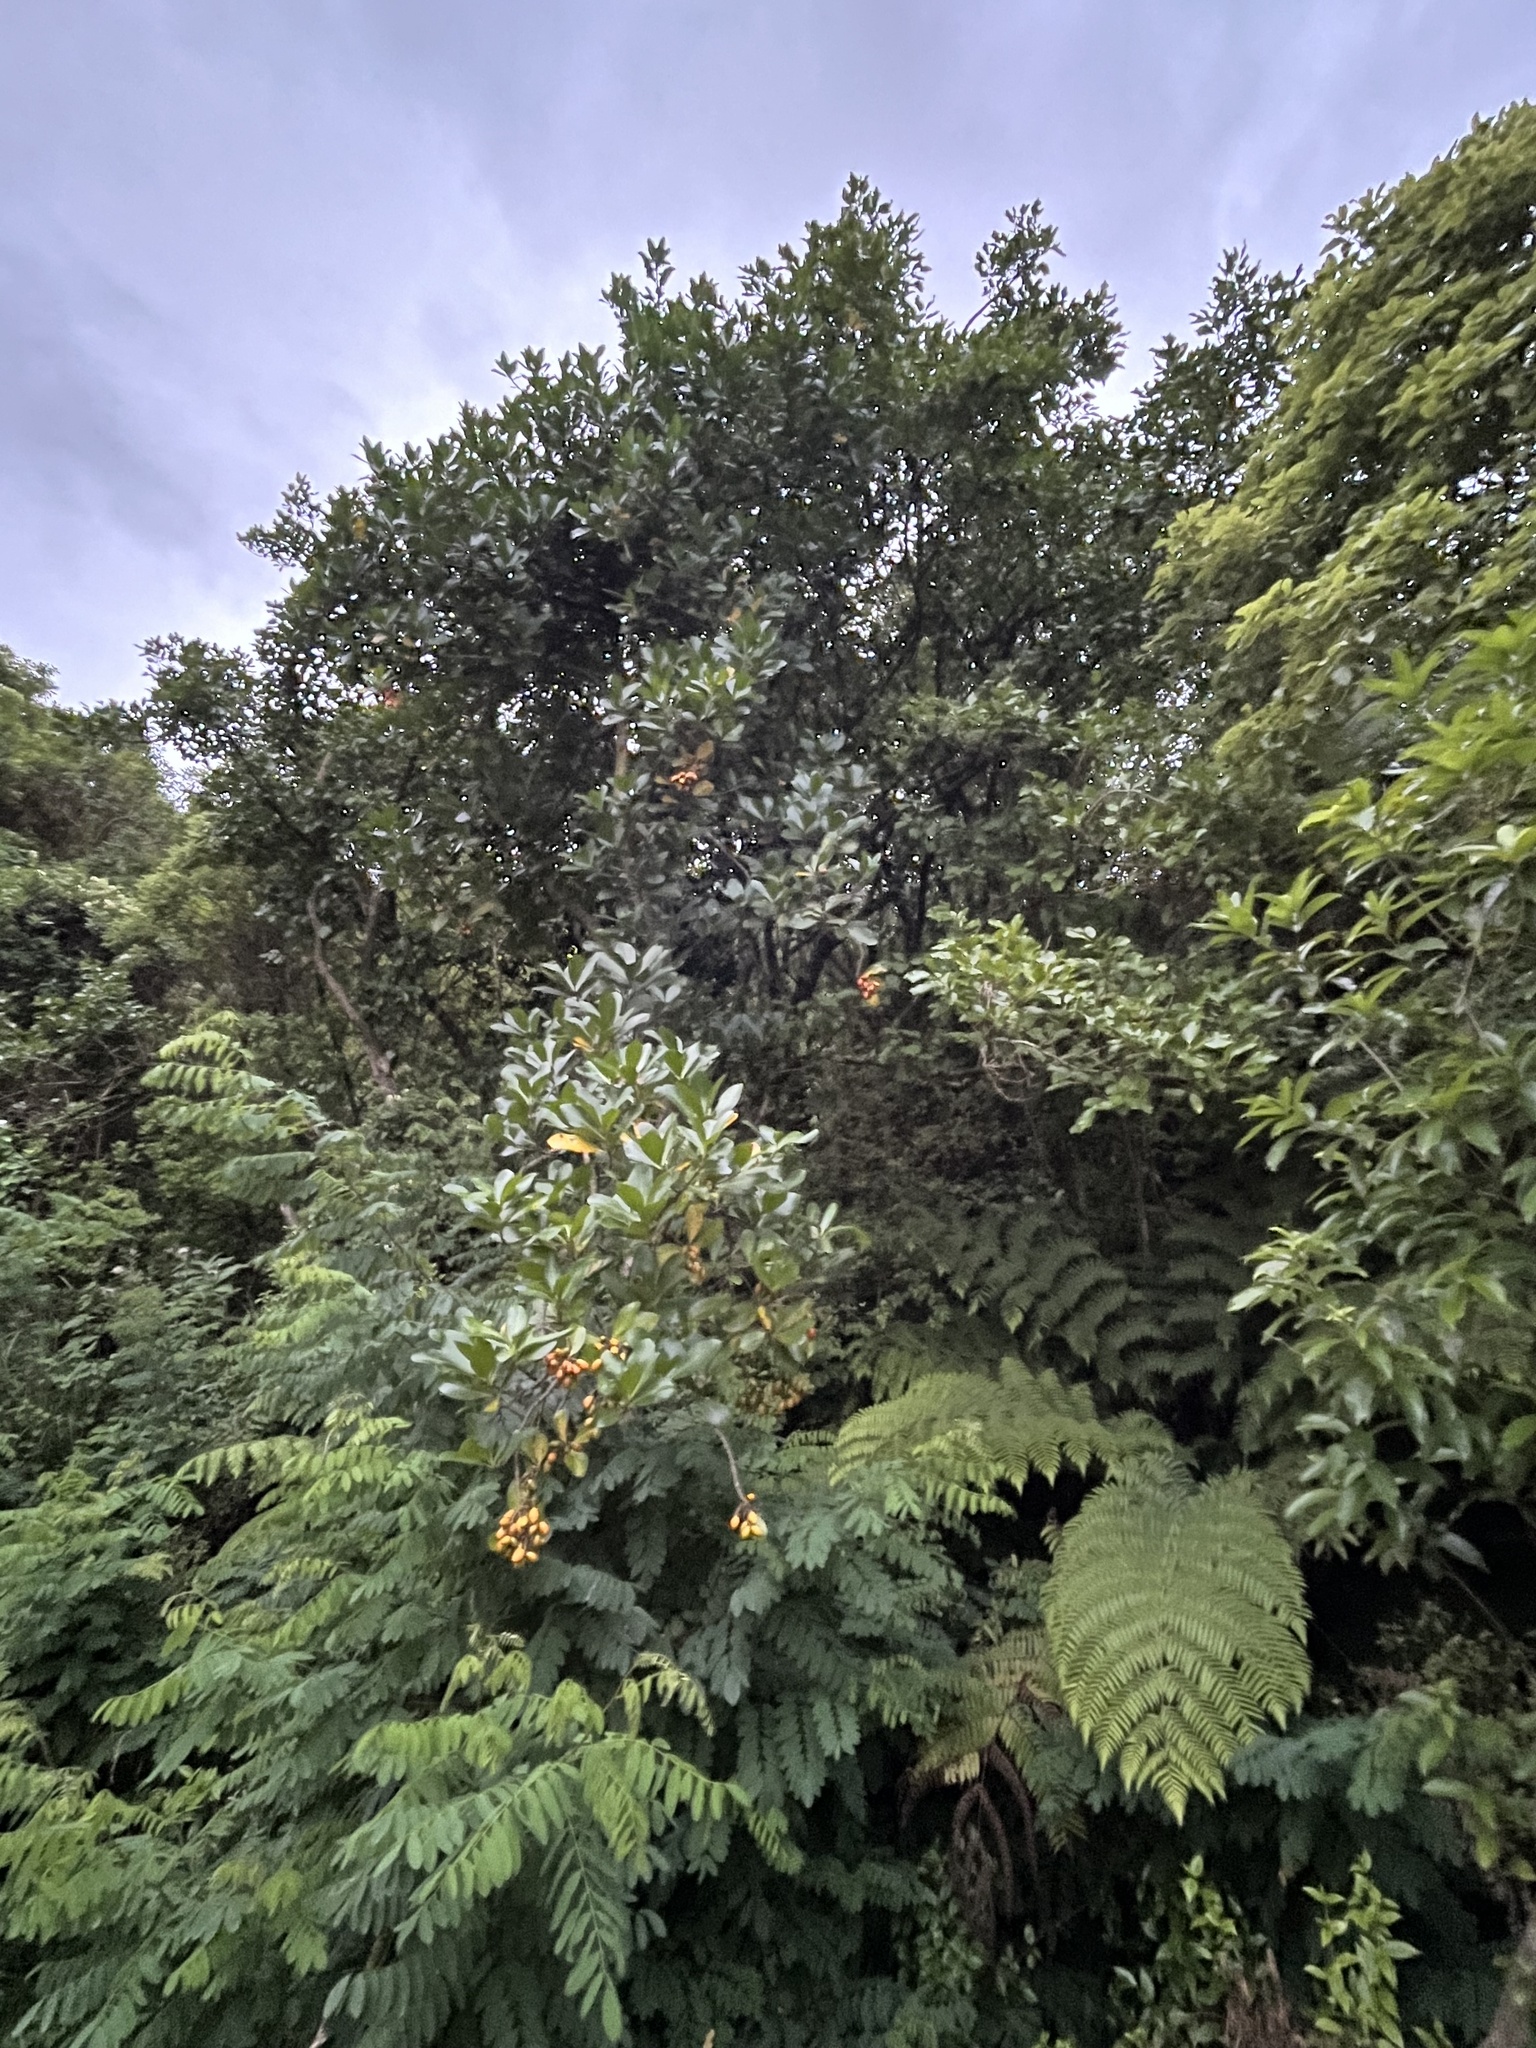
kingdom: Plantae
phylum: Tracheophyta
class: Magnoliopsida
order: Cucurbitales
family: Corynocarpaceae
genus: Corynocarpus
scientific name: Corynocarpus laevigatus
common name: New zealand laurel
